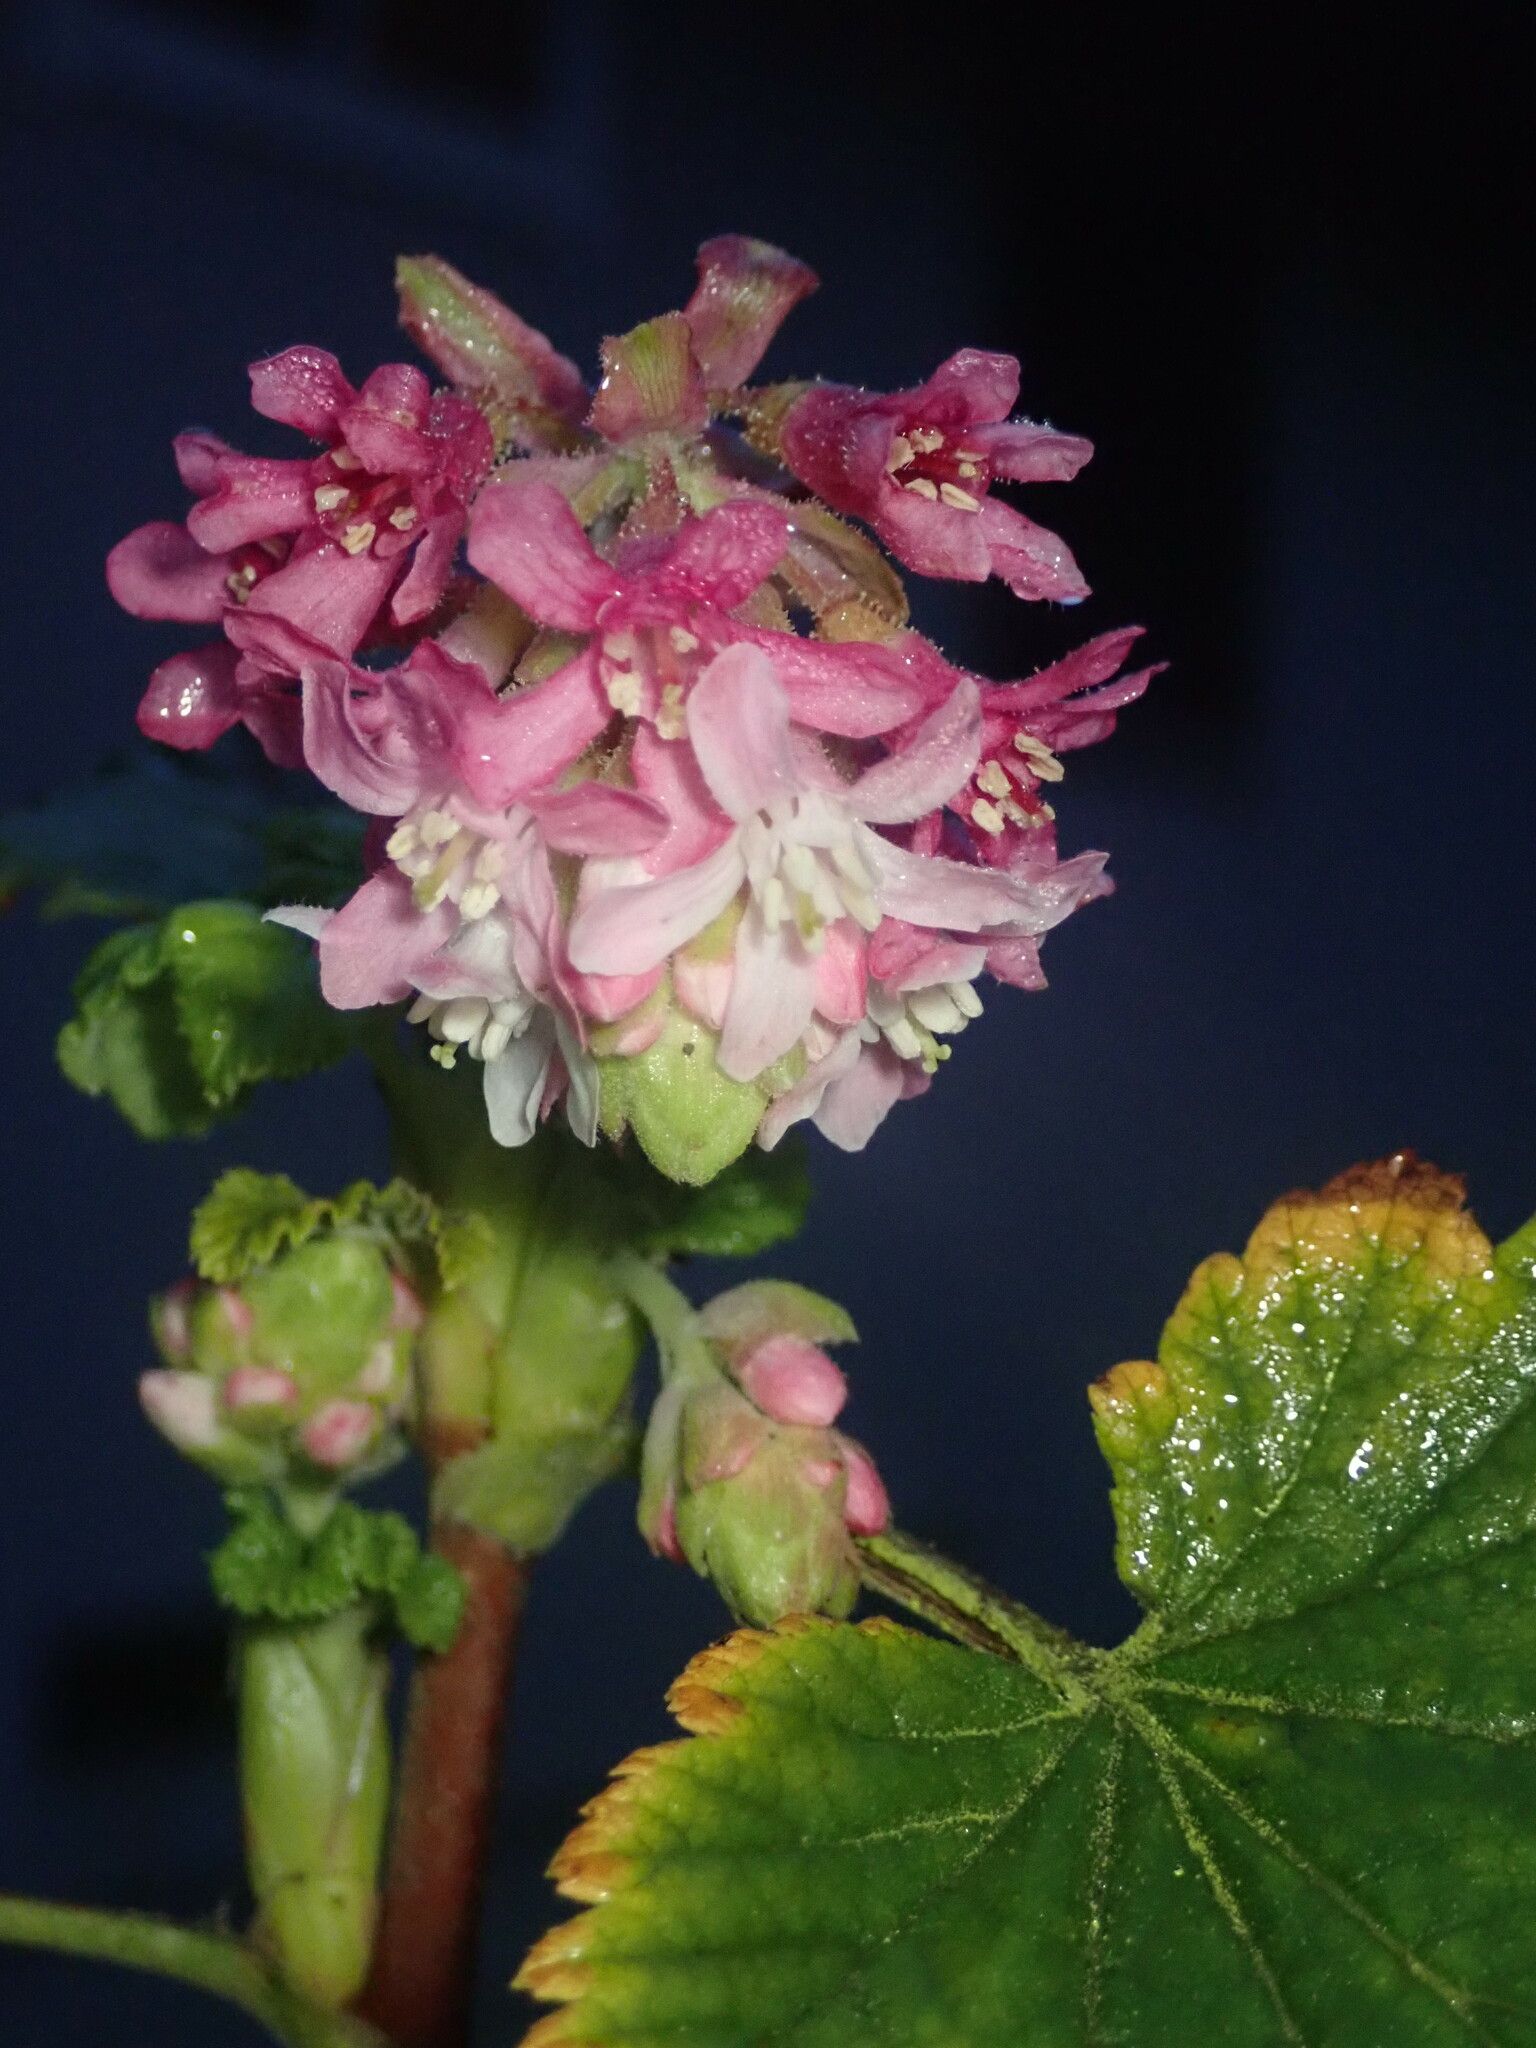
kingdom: Plantae
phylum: Tracheophyta
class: Magnoliopsida
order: Saxifragales
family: Grossulariaceae
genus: Ribes
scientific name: Ribes sanguineum
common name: Flowering currant
